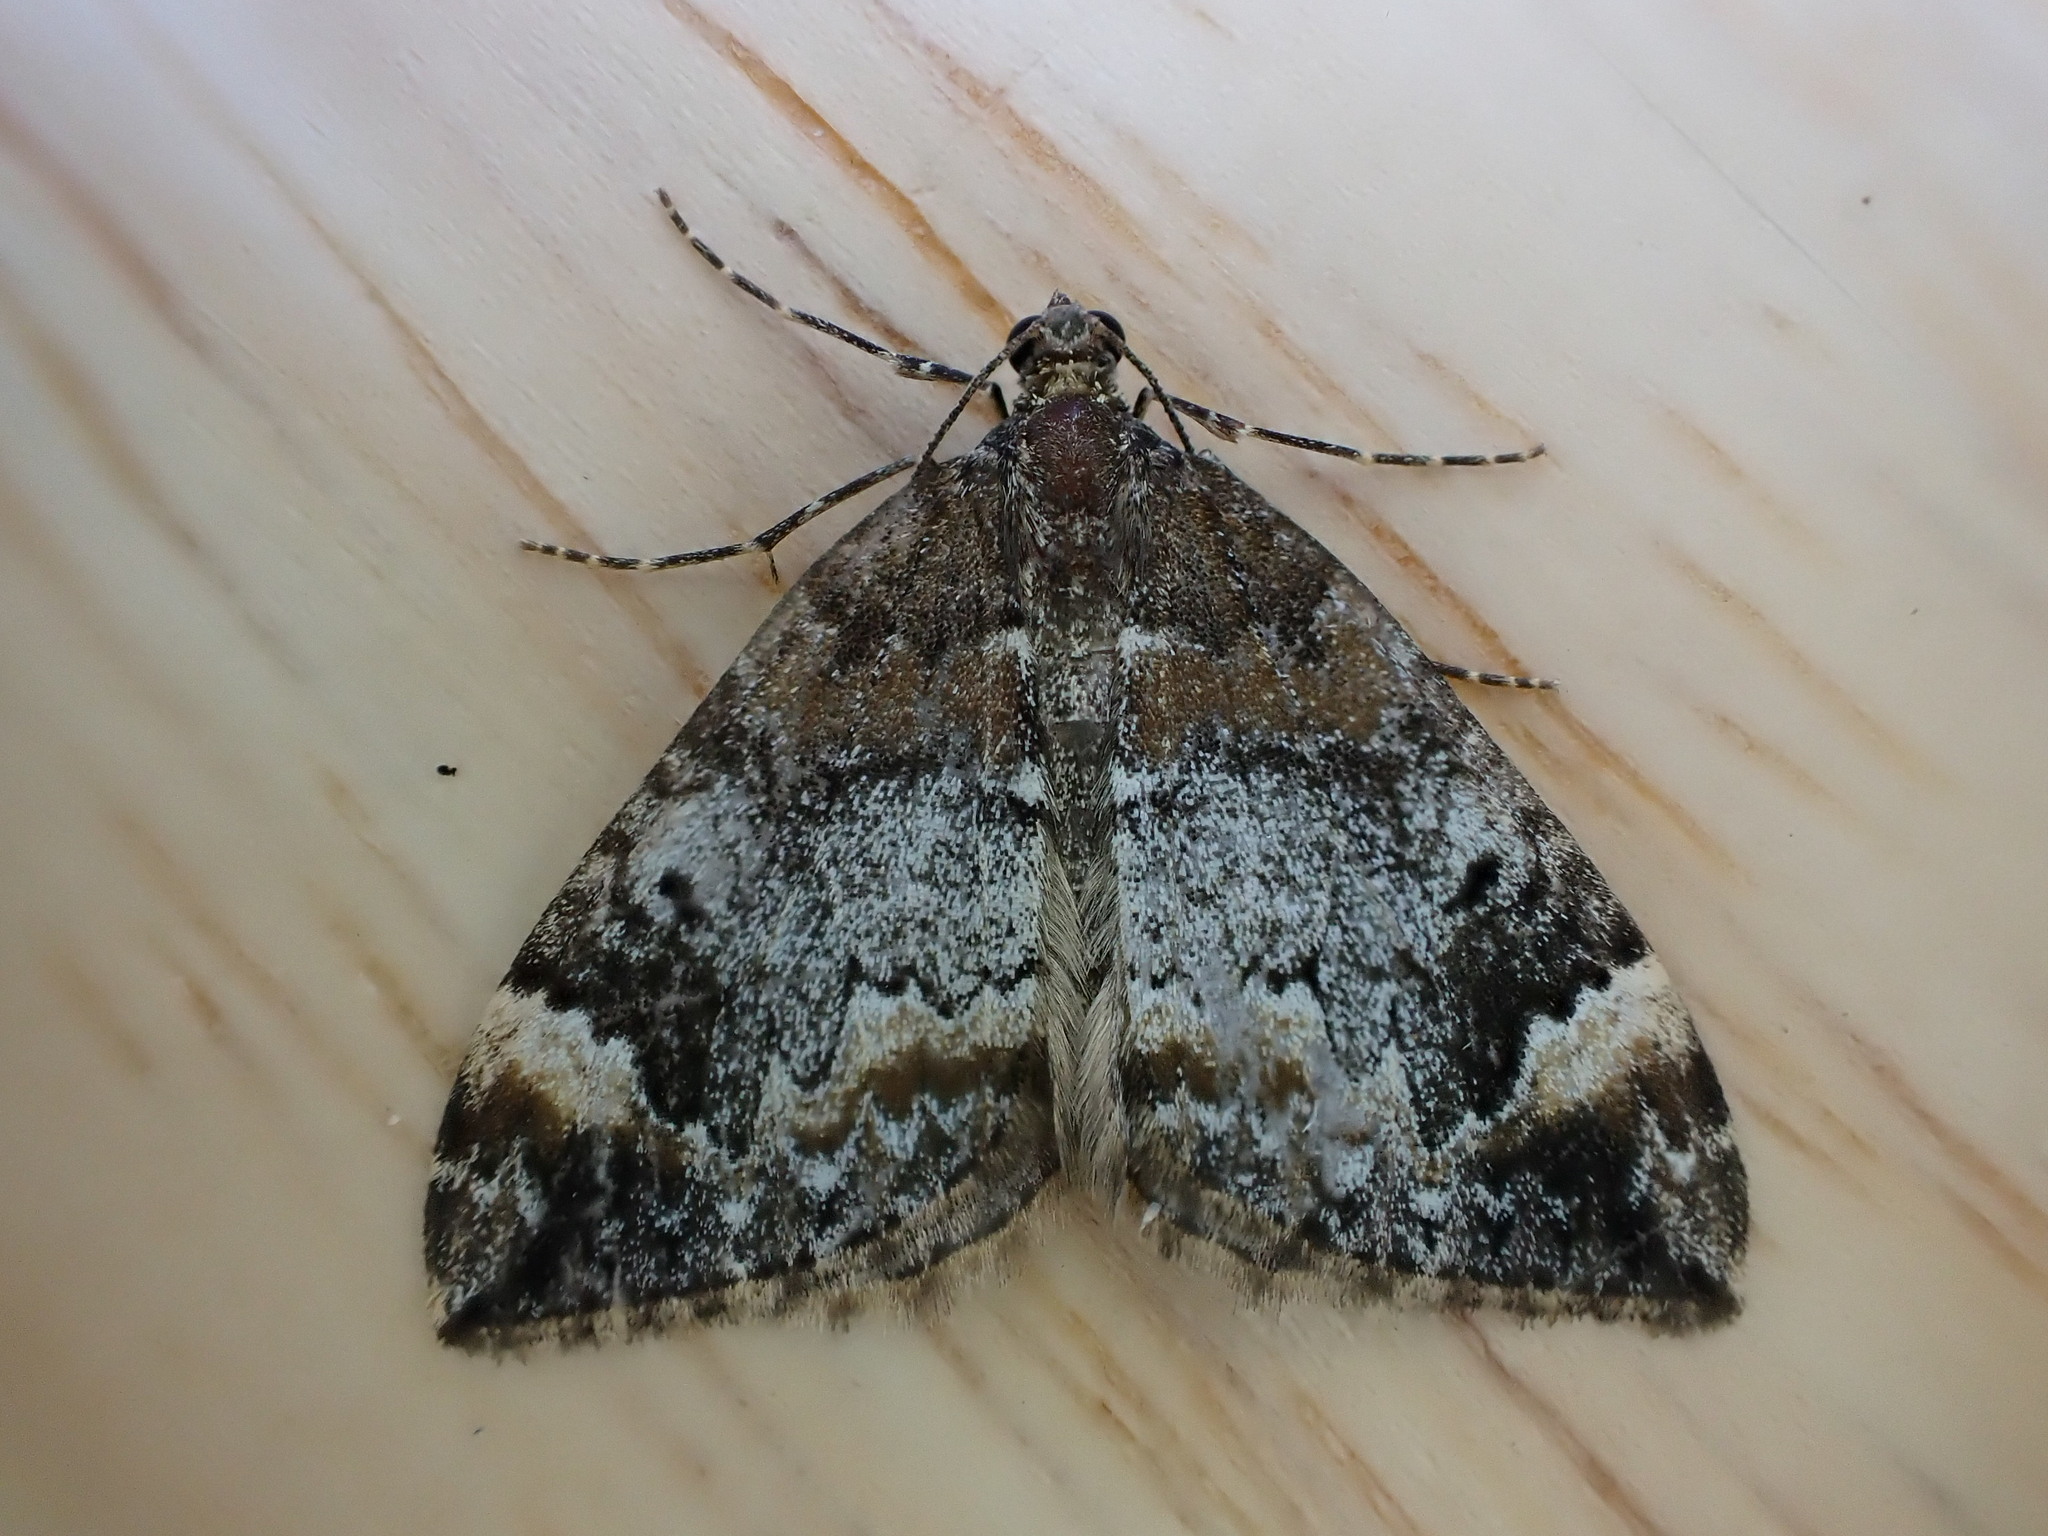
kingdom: Animalia
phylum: Arthropoda
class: Insecta
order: Lepidoptera
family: Geometridae
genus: Dysstroma
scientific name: Dysstroma truncata
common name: Common marbled carpet
